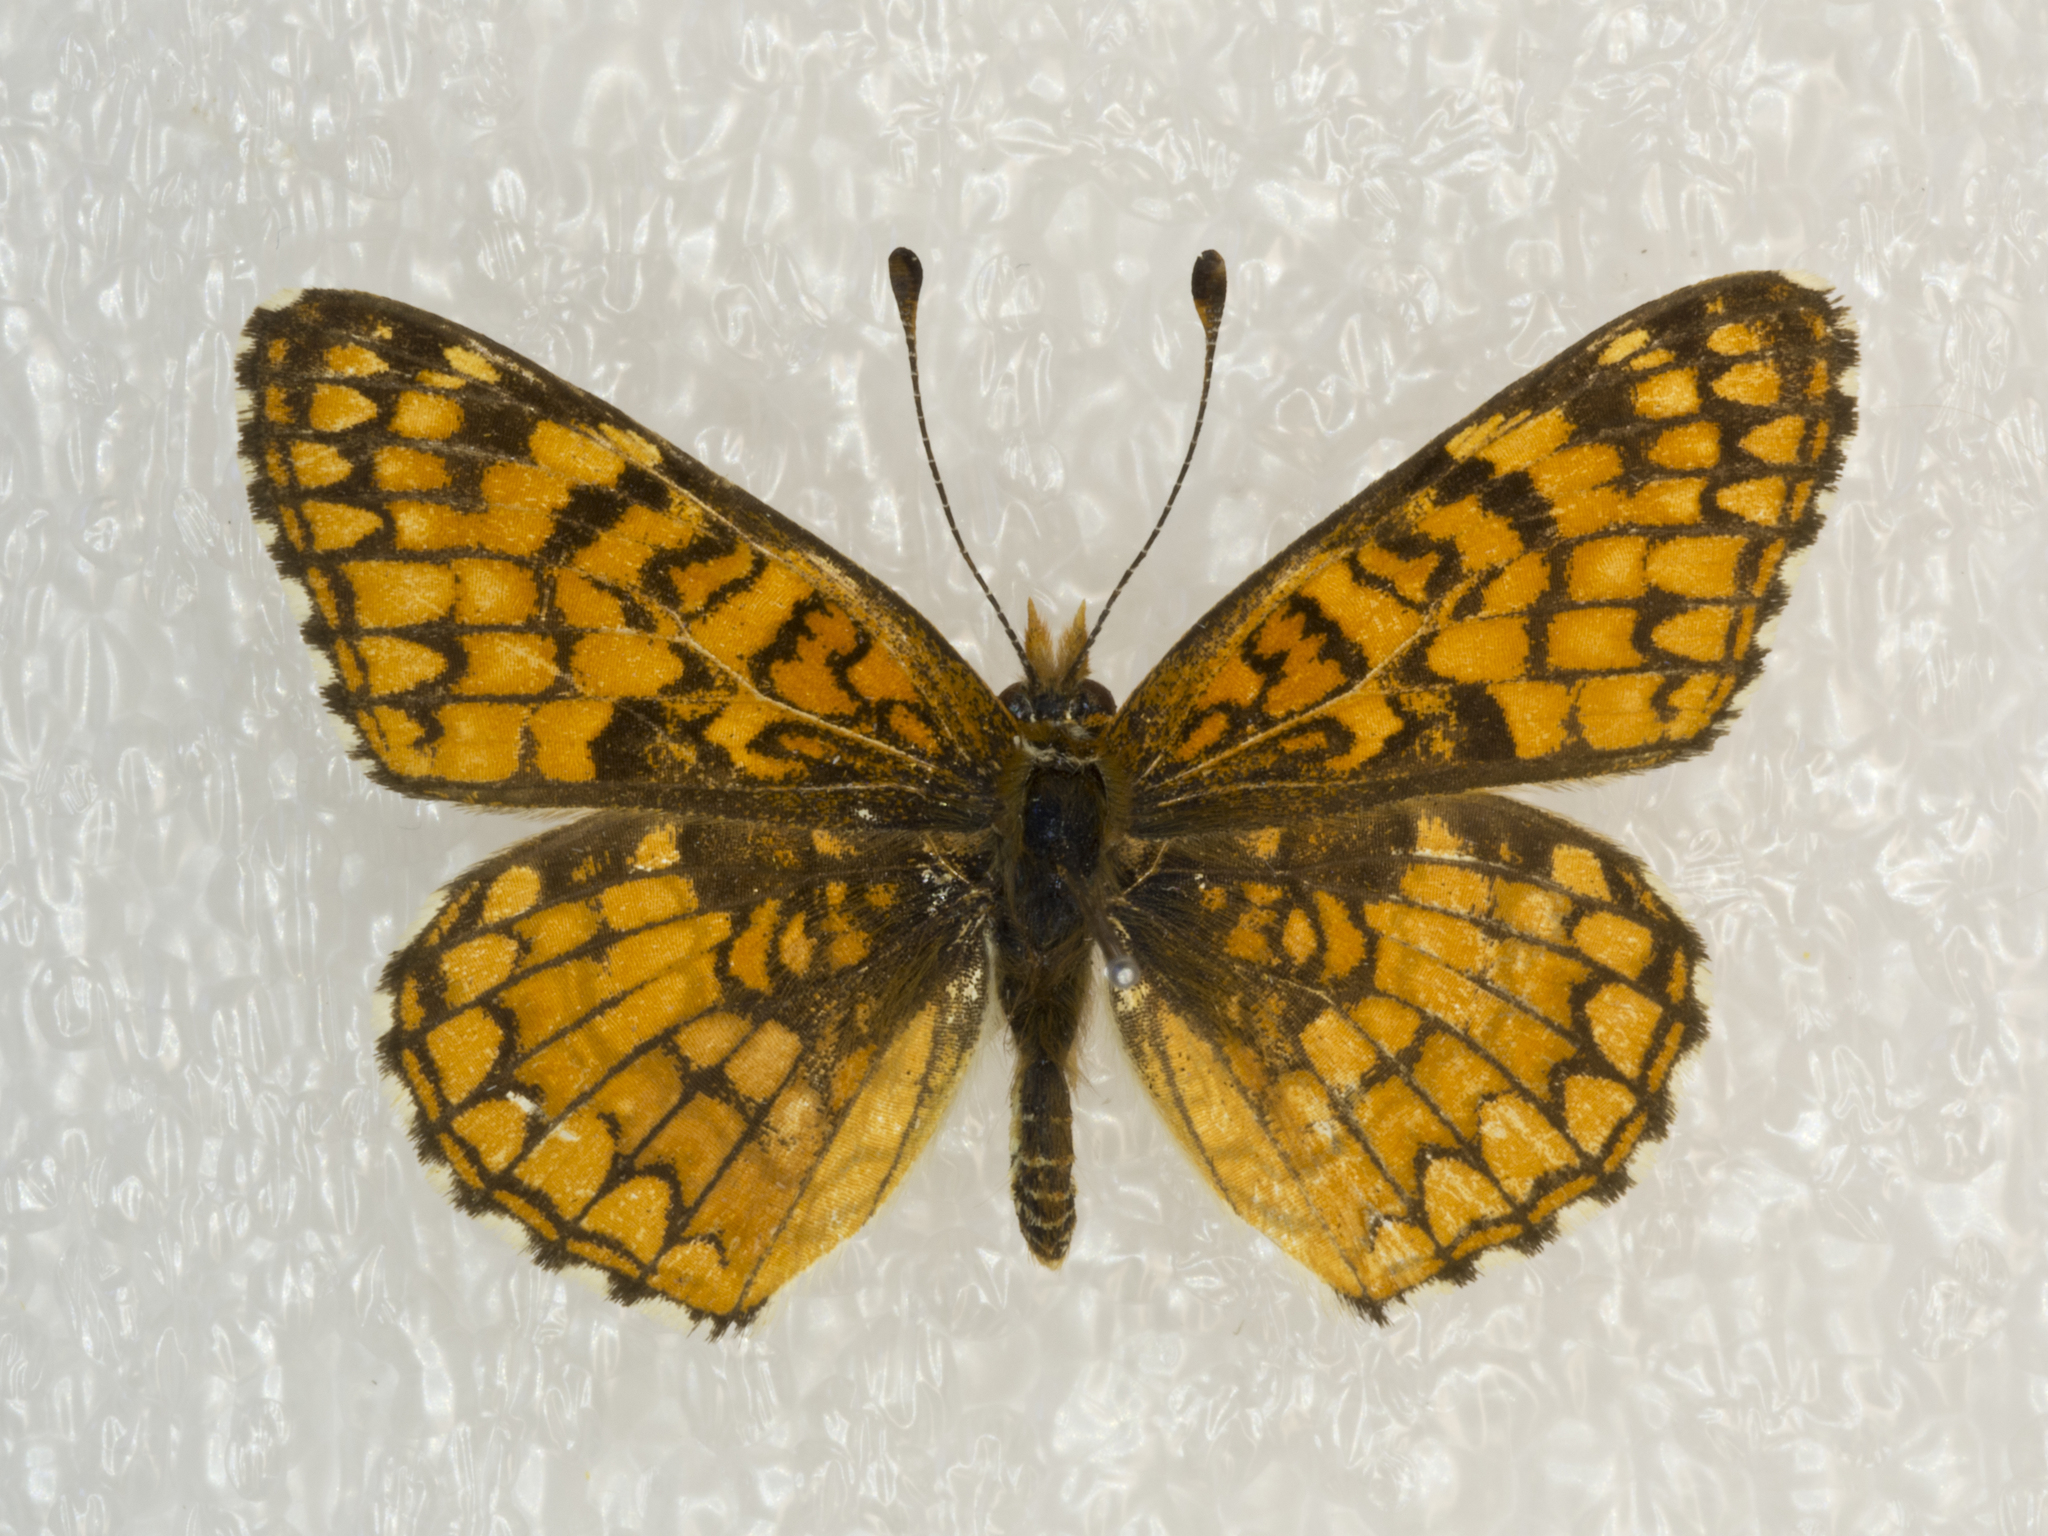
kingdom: Animalia
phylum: Arthropoda
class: Insecta
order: Lepidoptera
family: Nymphalidae
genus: Chlosyne
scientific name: Chlosyne acastus
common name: Sagebrush checkerspot
